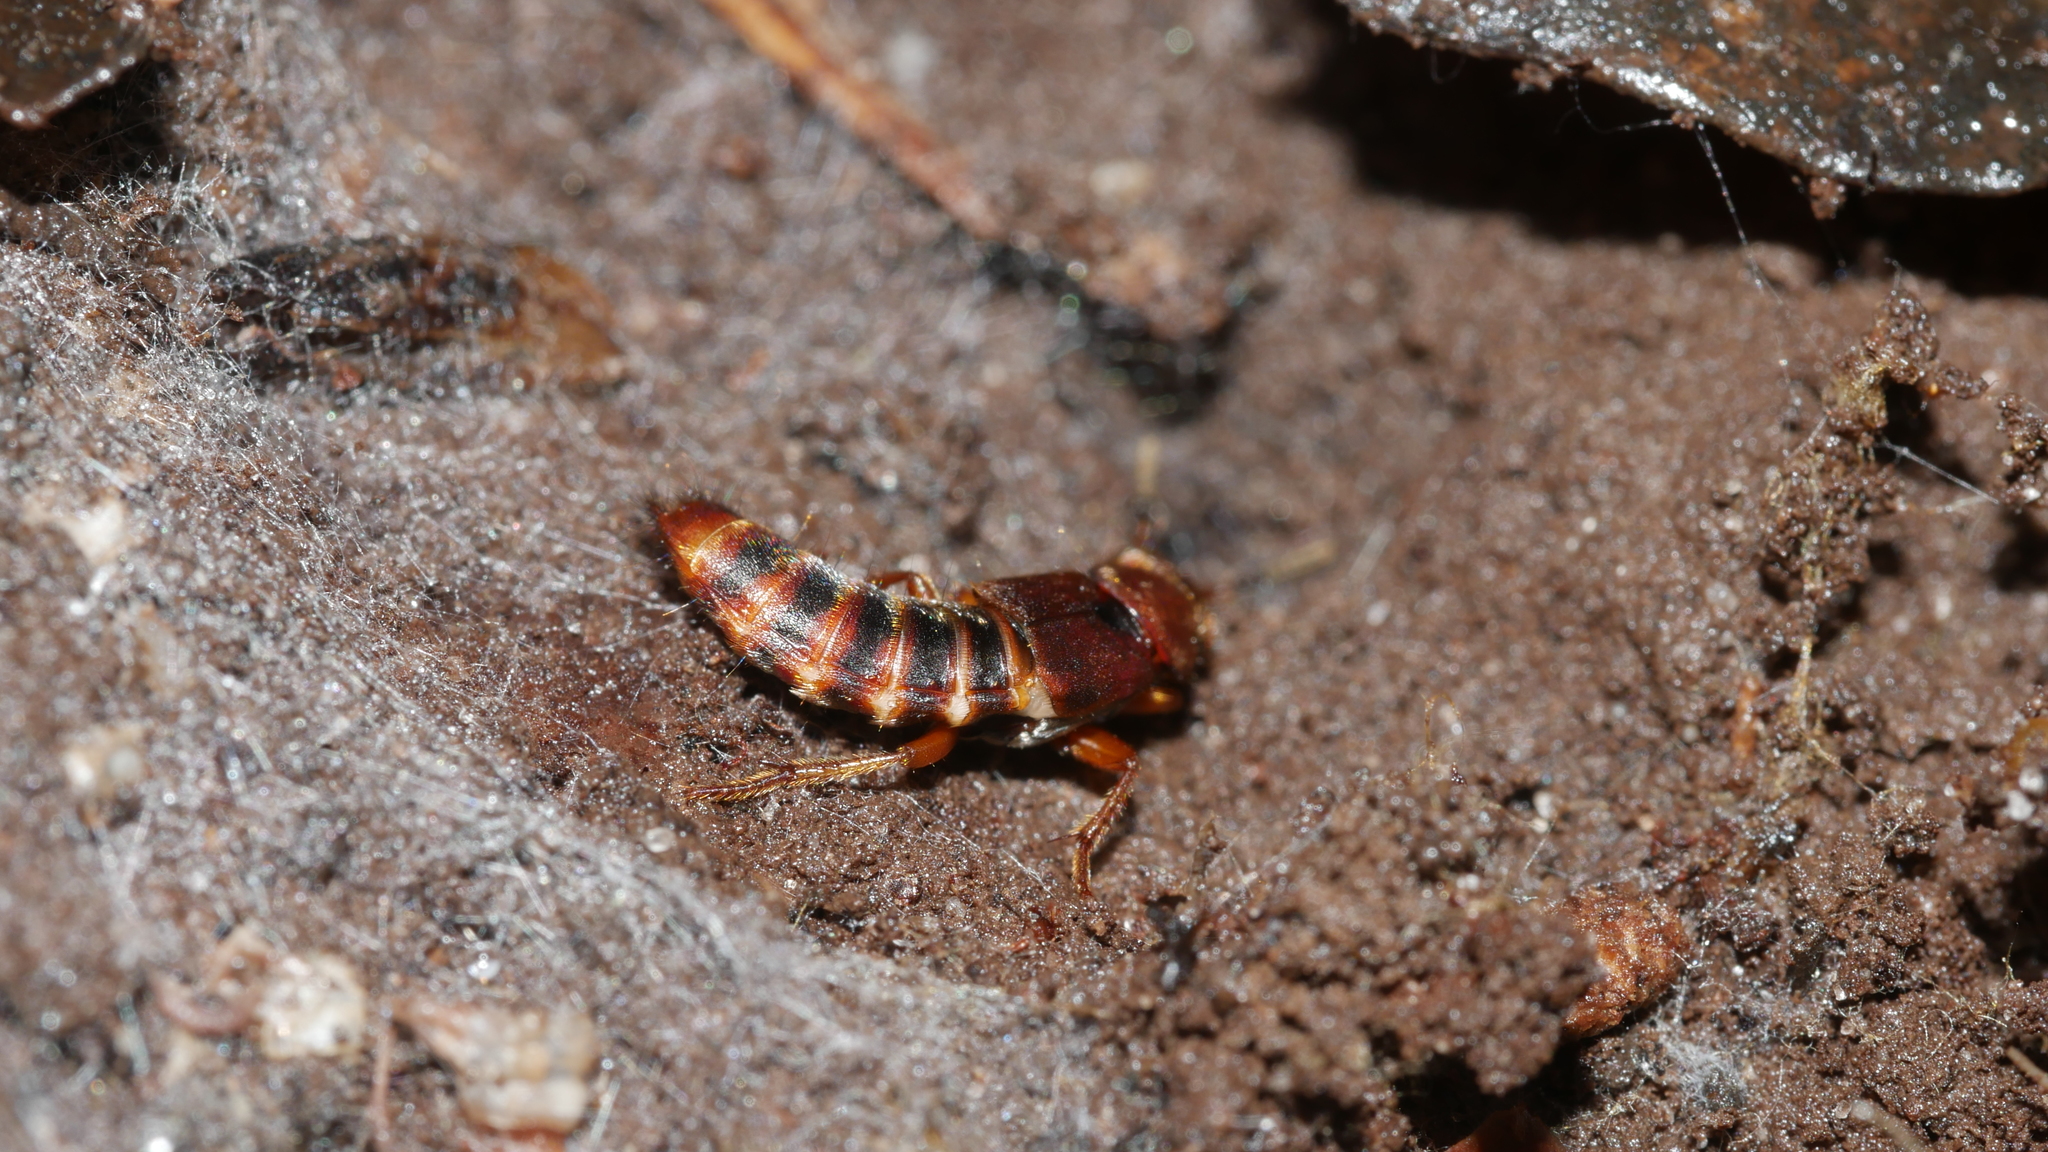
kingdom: Animalia
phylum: Arthropoda
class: Insecta
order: Coleoptera
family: Staphylinidae
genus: Platydracus
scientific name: Platydracus cinnamopterus
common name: Cinnamon rove beetle
